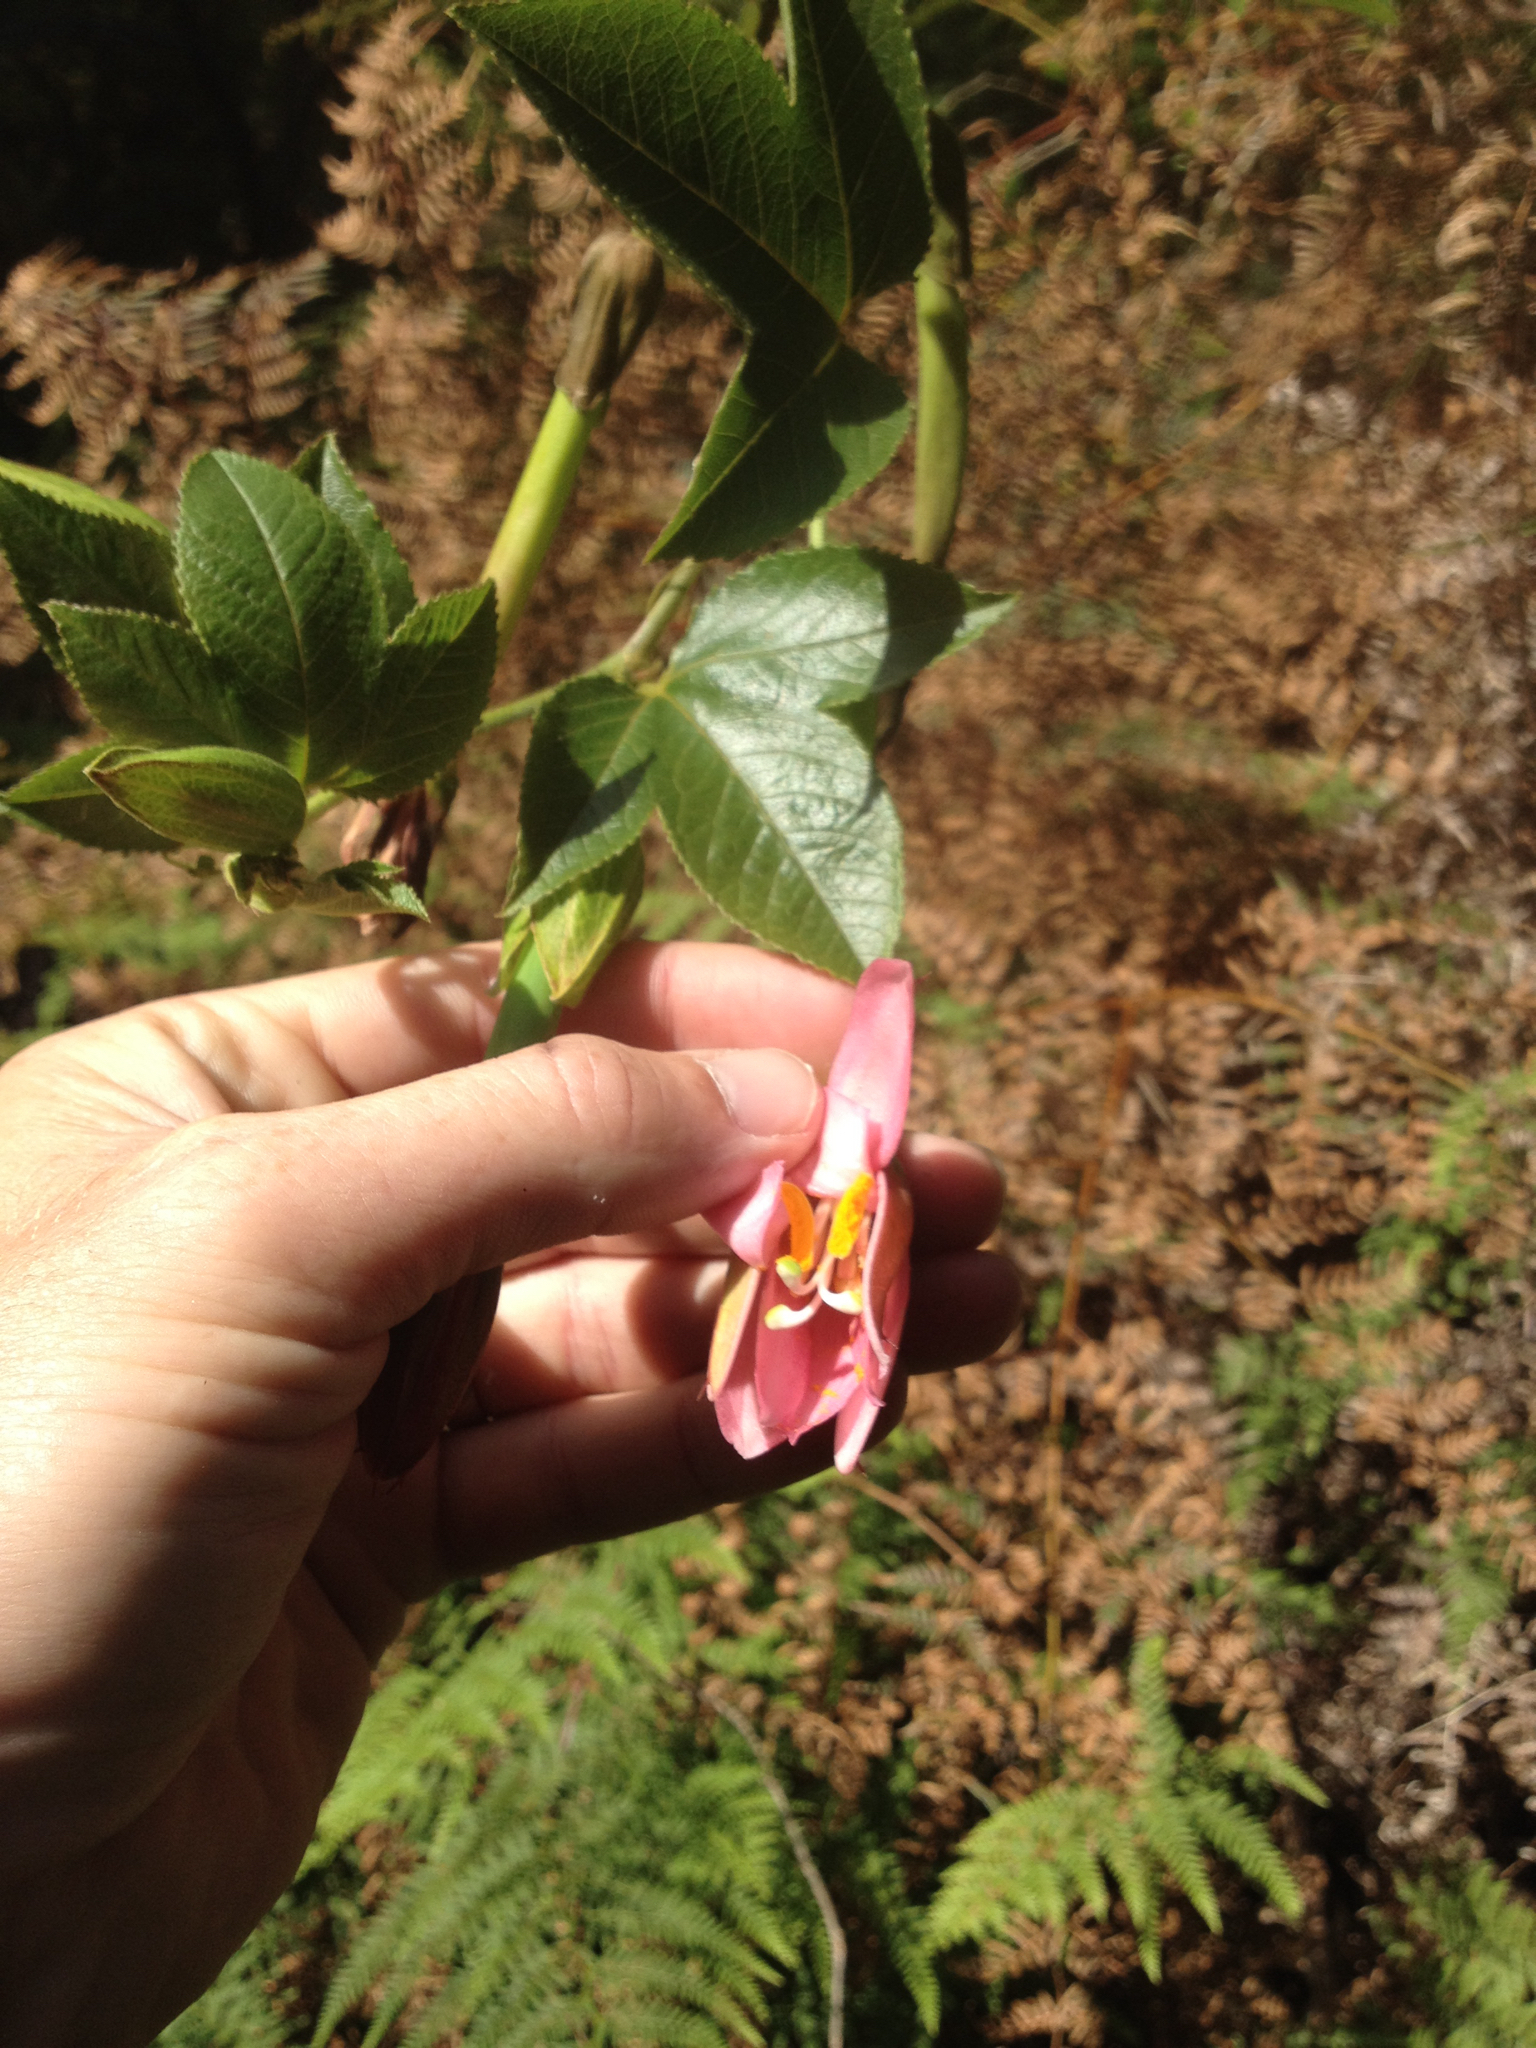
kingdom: Plantae
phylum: Tracheophyta
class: Magnoliopsida
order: Malpighiales
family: Passifloraceae
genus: Passiflora
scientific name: Passiflora tripartita
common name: Banana poka
